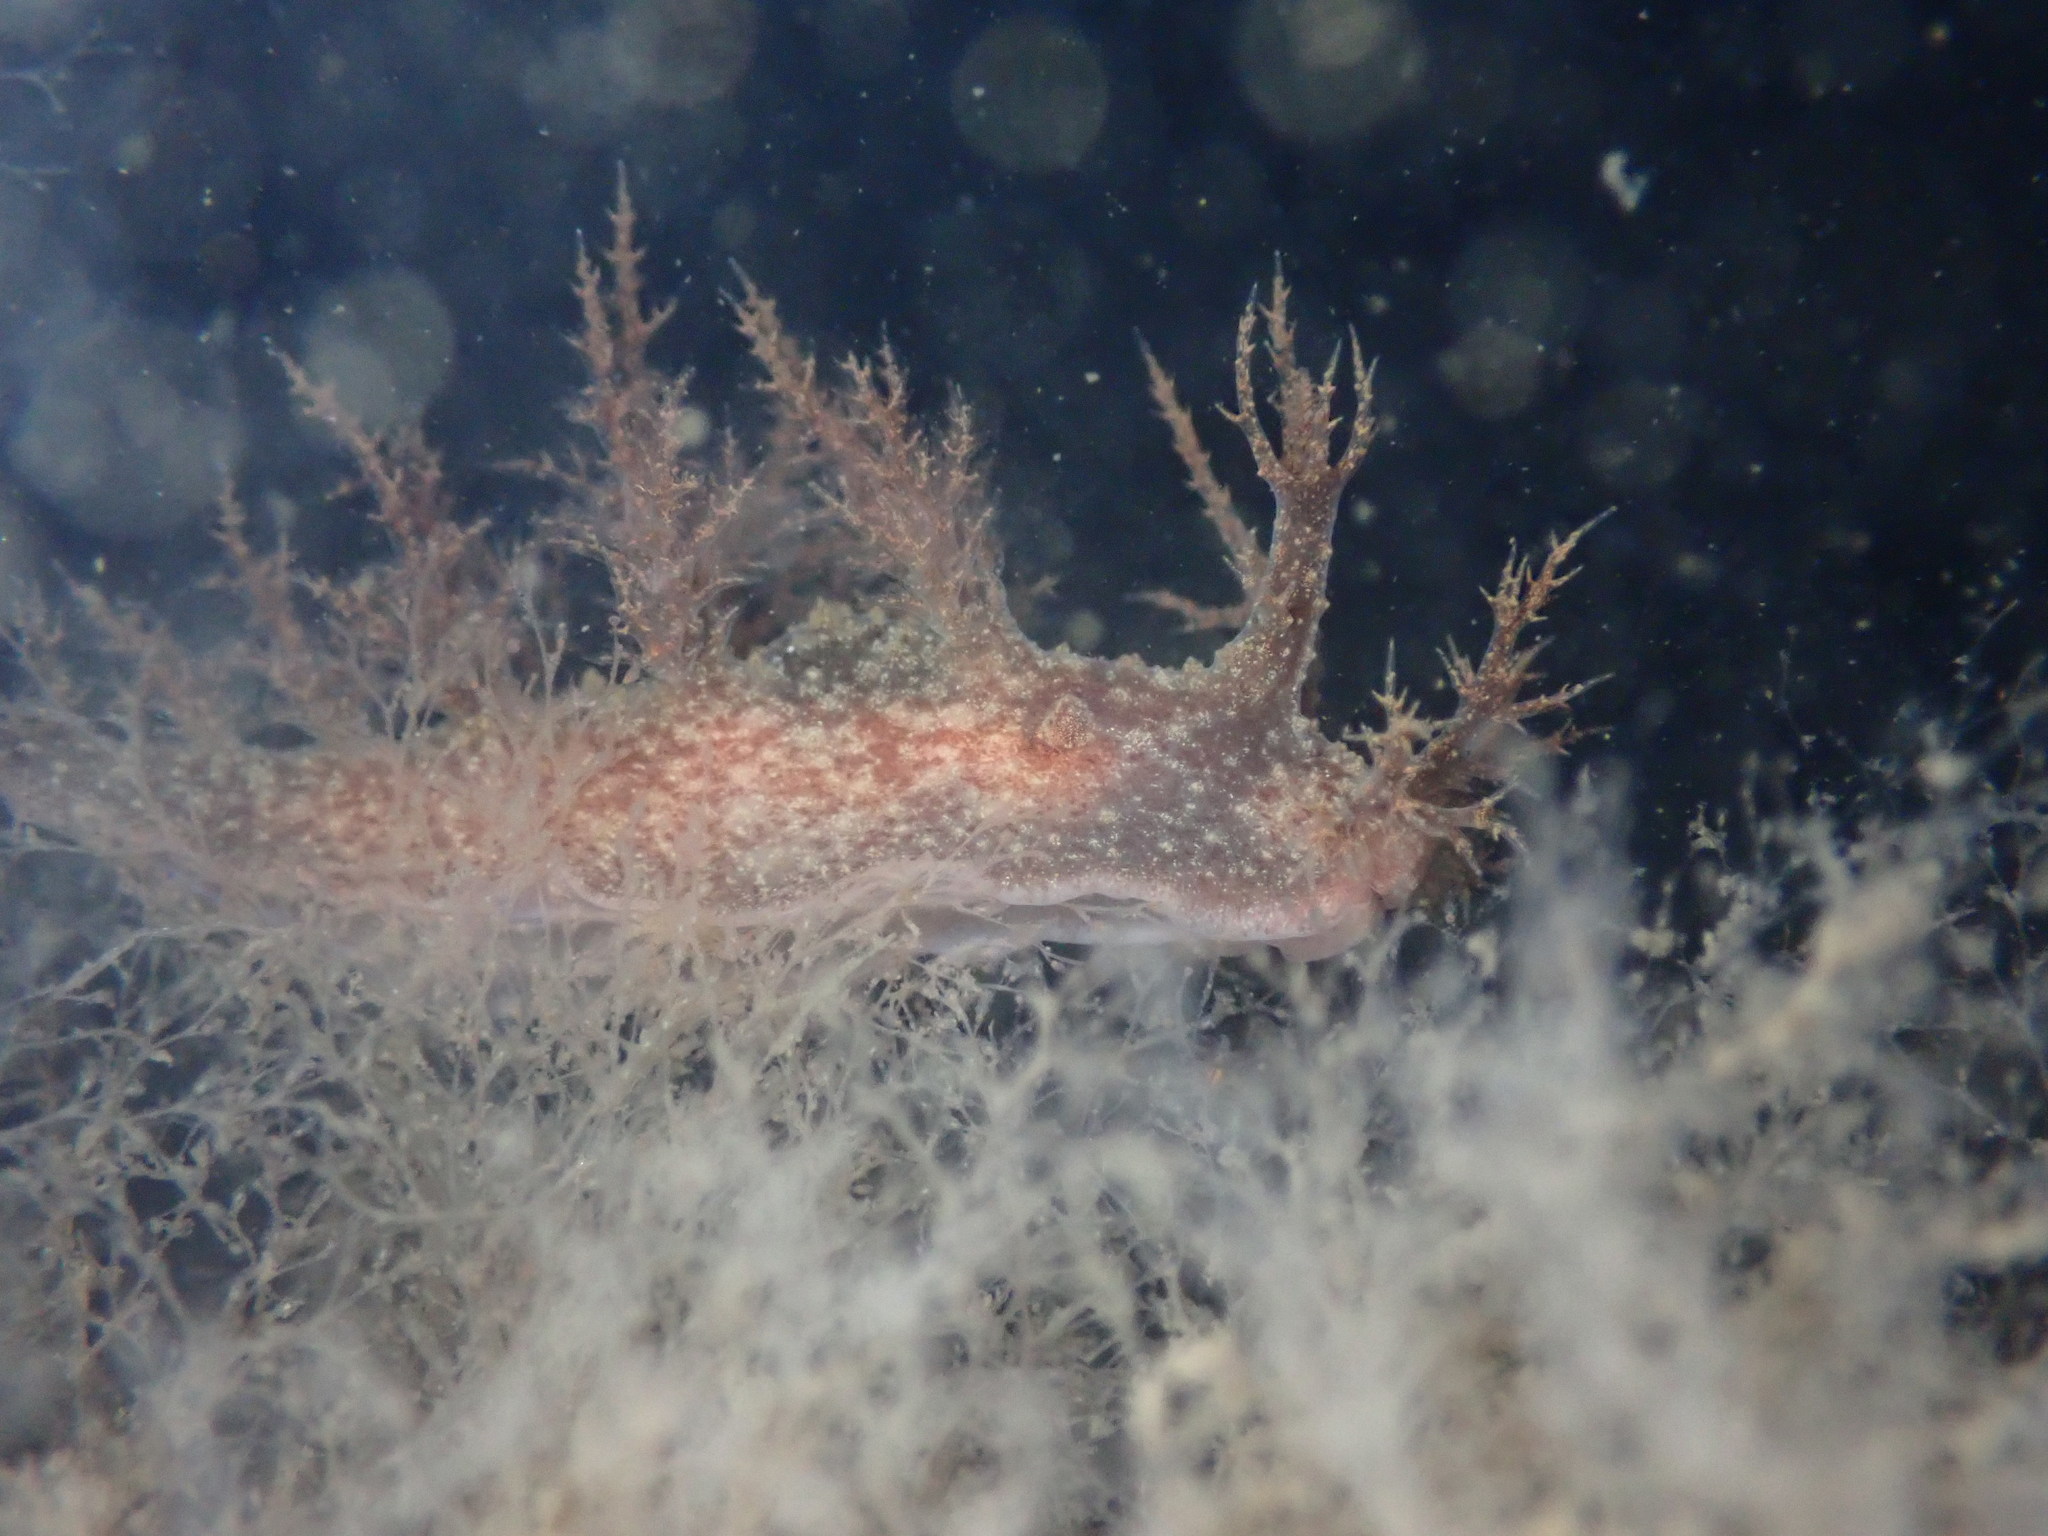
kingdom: Animalia
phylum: Mollusca
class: Gastropoda
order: Nudibranchia
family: Dendronotidae
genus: Dendronotus
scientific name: Dendronotus venustus
